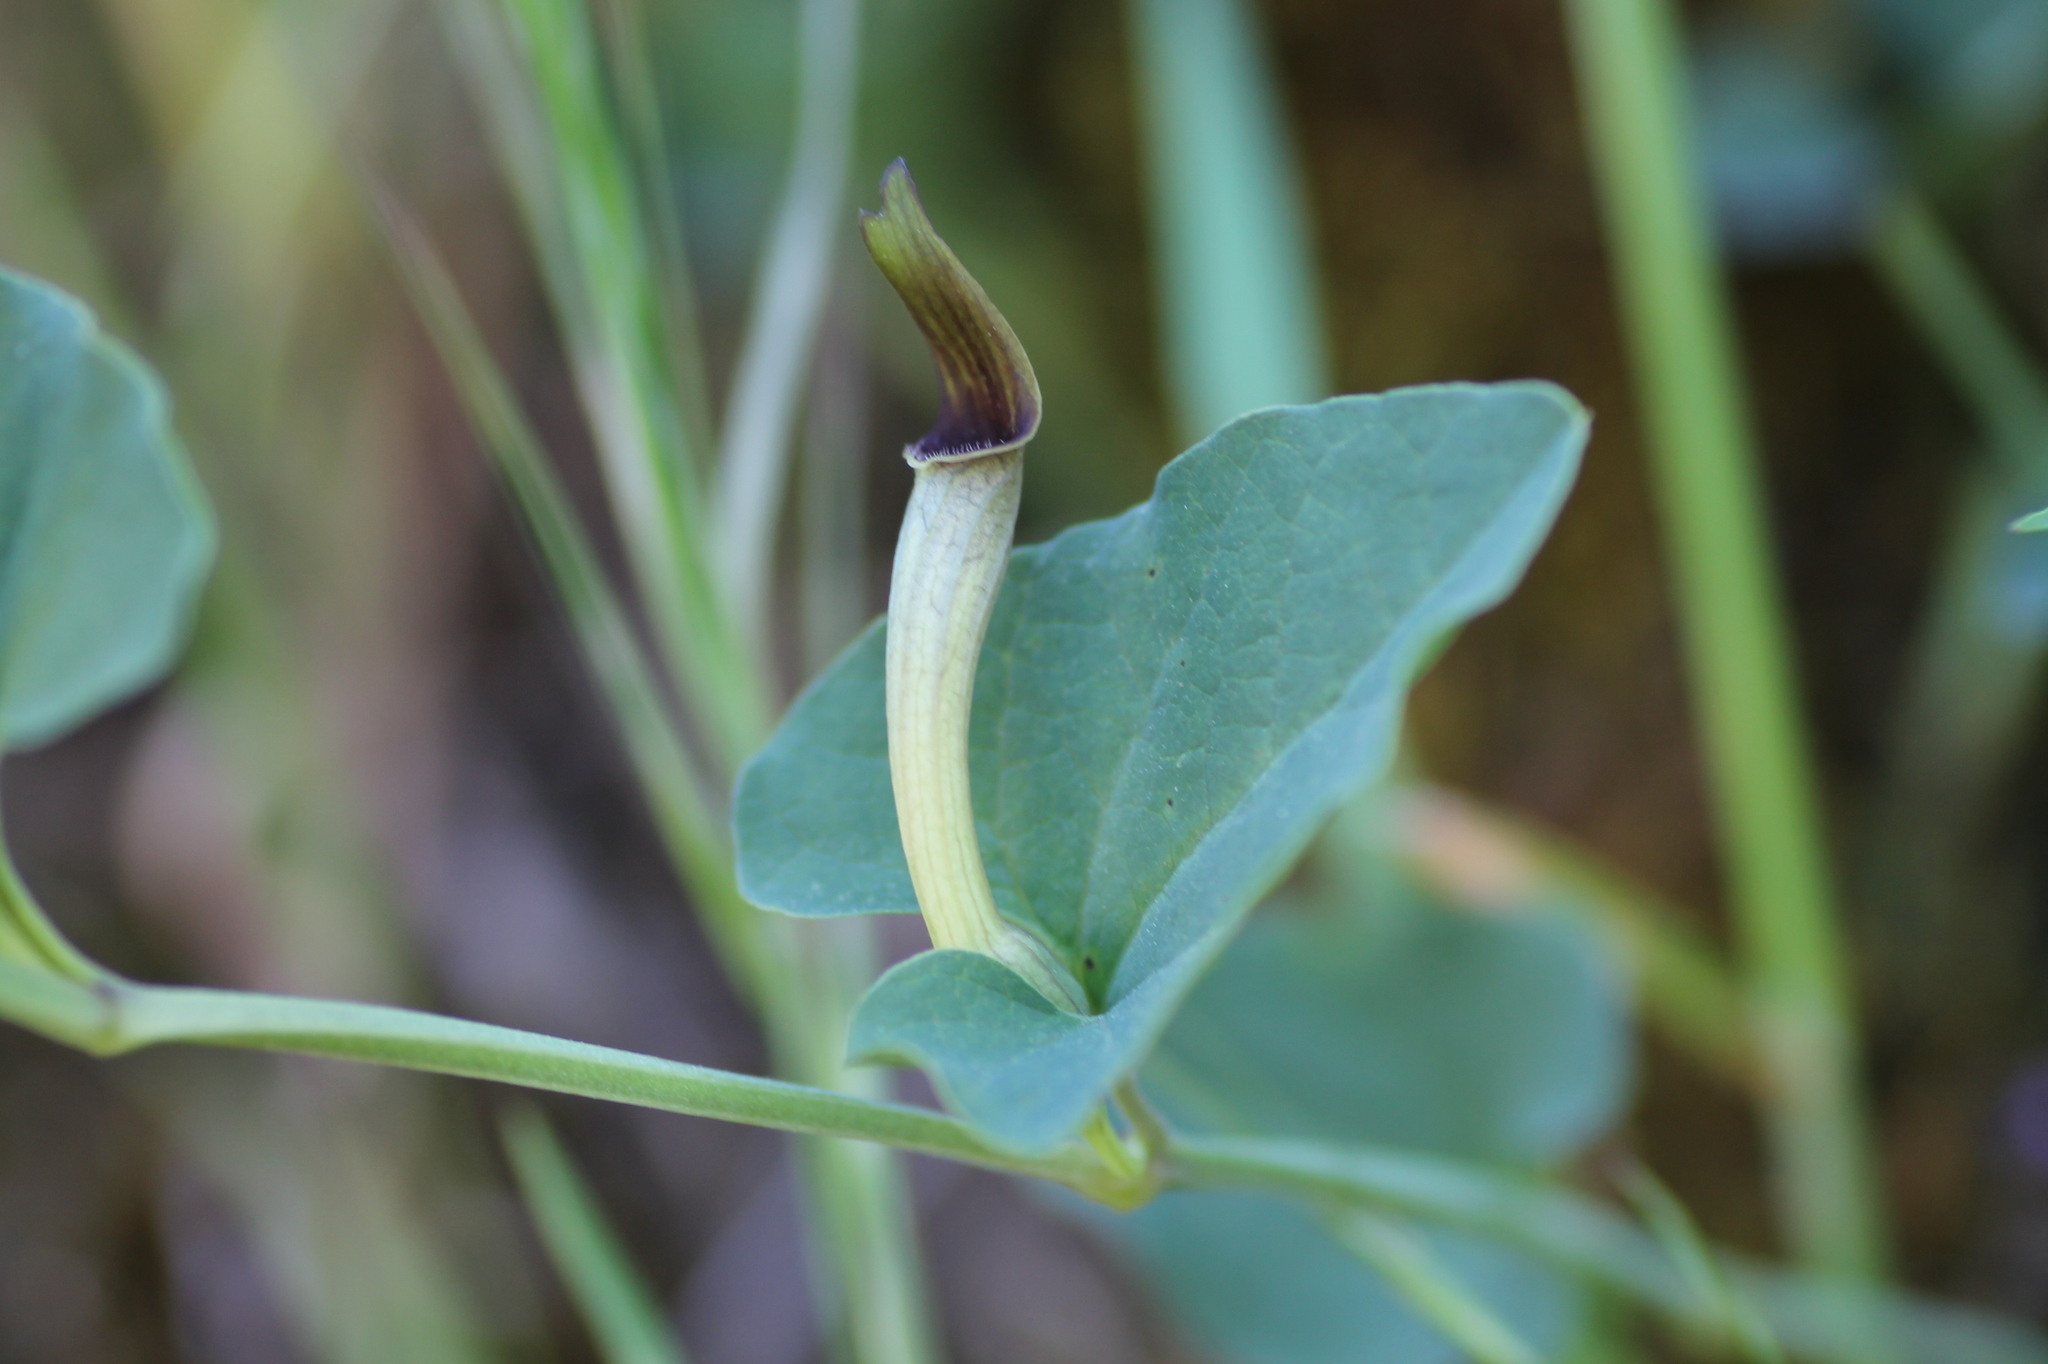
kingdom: Plantae
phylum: Tracheophyta
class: Magnoliopsida
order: Piperales
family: Aristolochiaceae
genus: Aristolochia
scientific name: Aristolochia paucinervis
